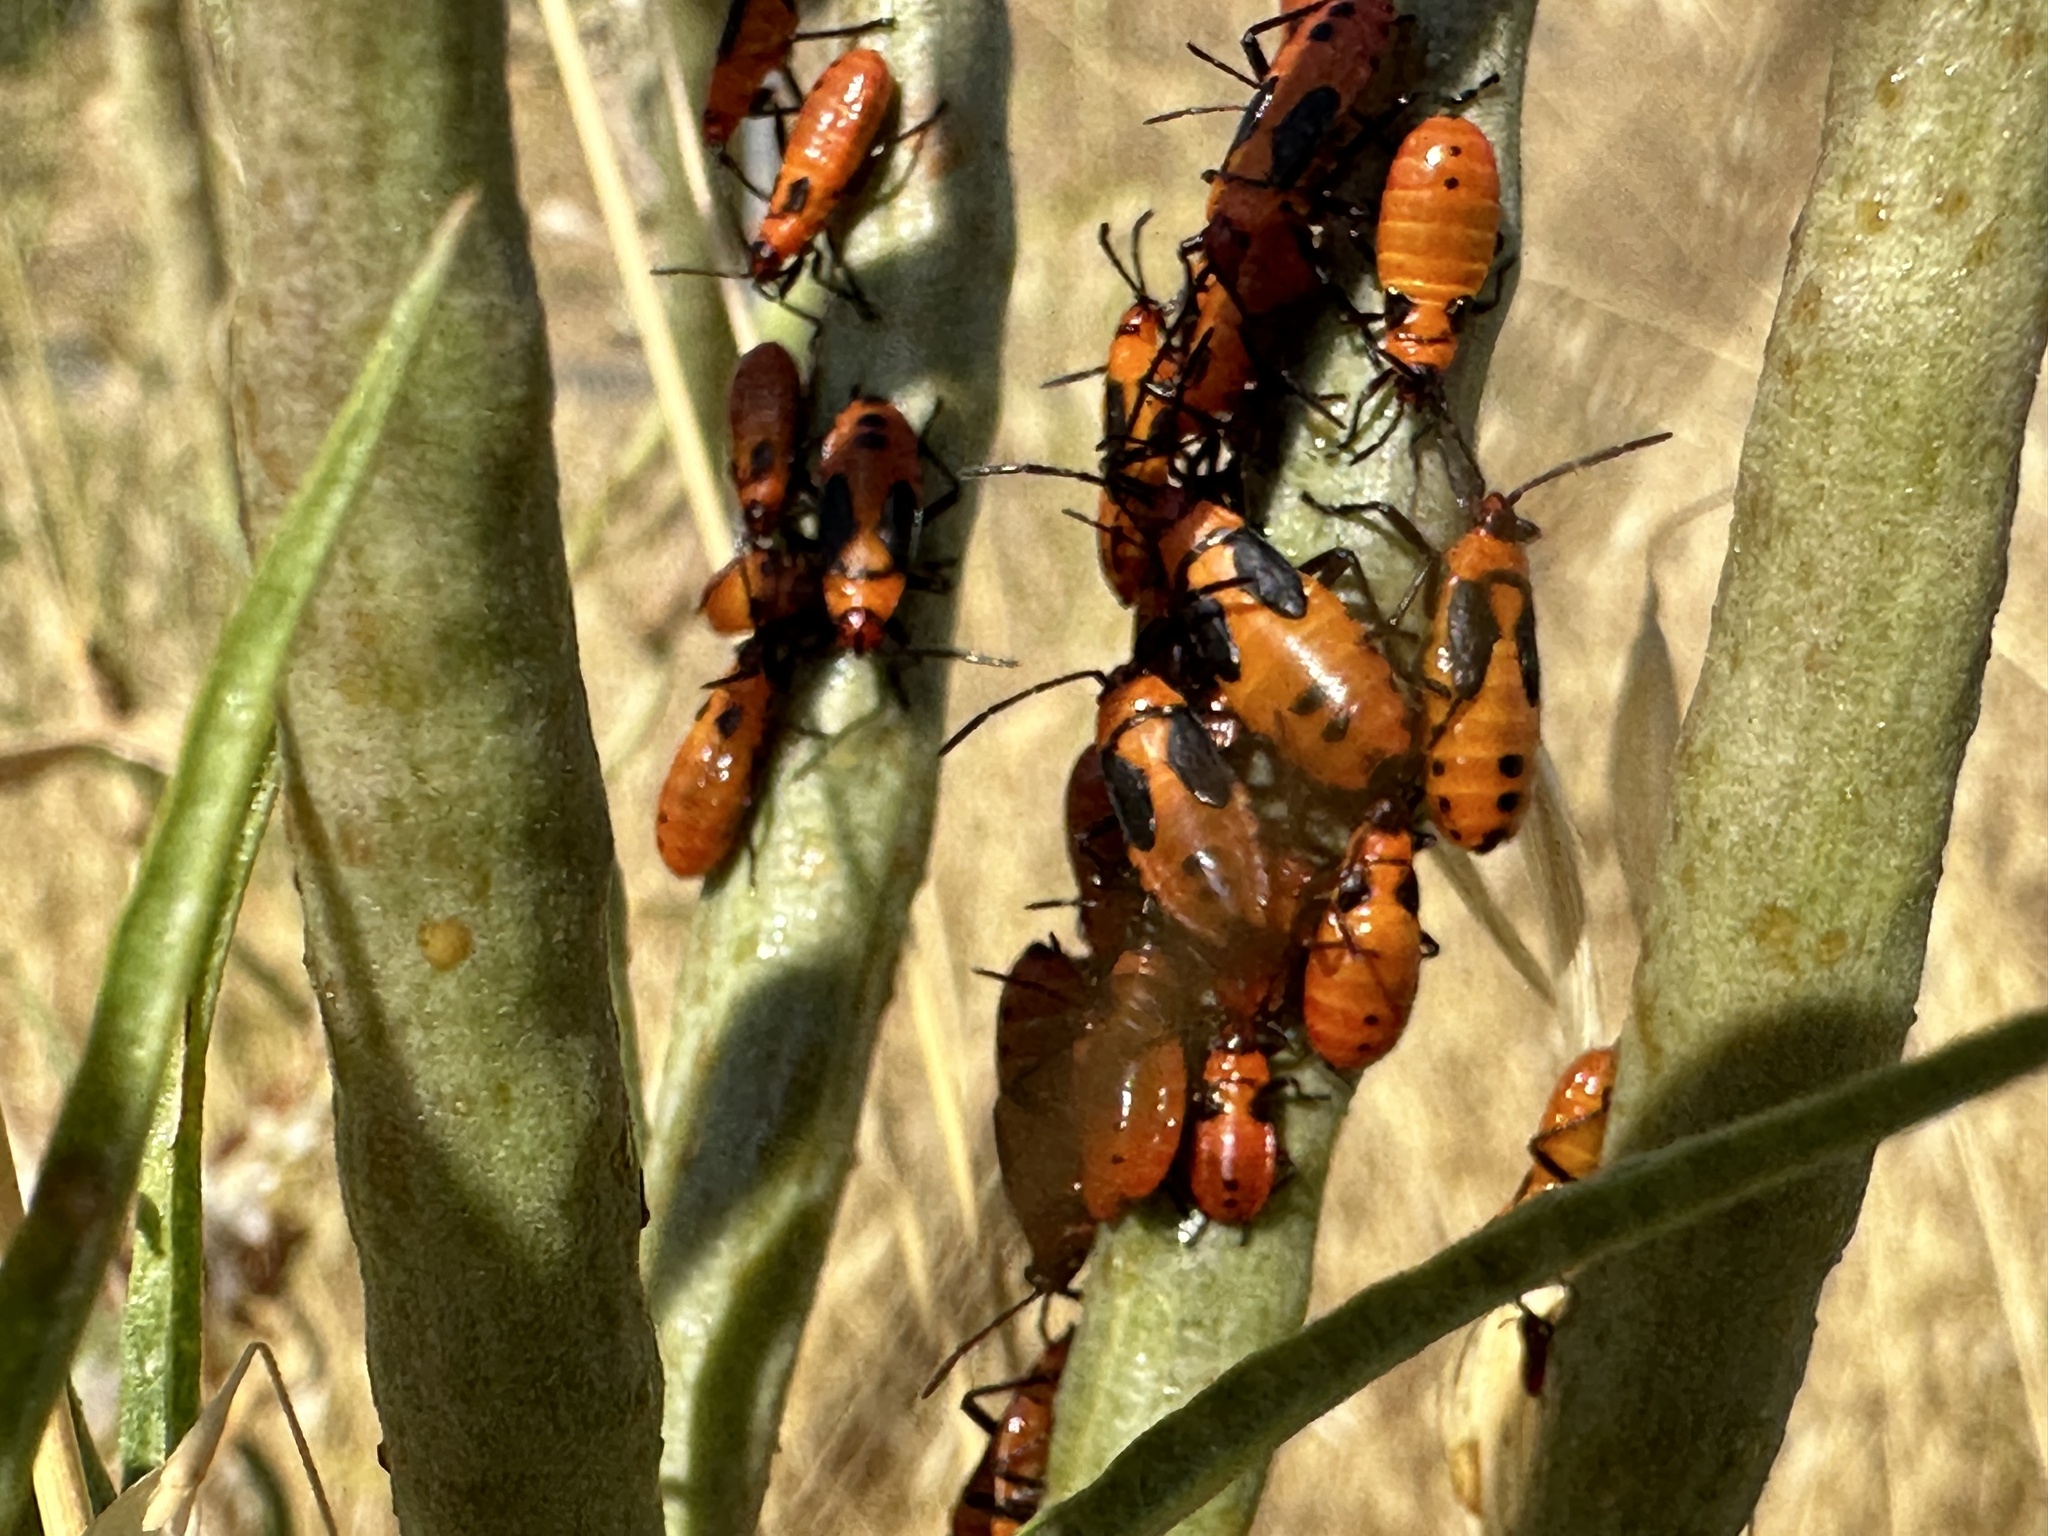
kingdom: Animalia
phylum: Arthropoda
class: Insecta
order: Hemiptera
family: Lygaeidae
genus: Oncopeltus
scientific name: Oncopeltus fasciatus
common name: Large milkweed bug
